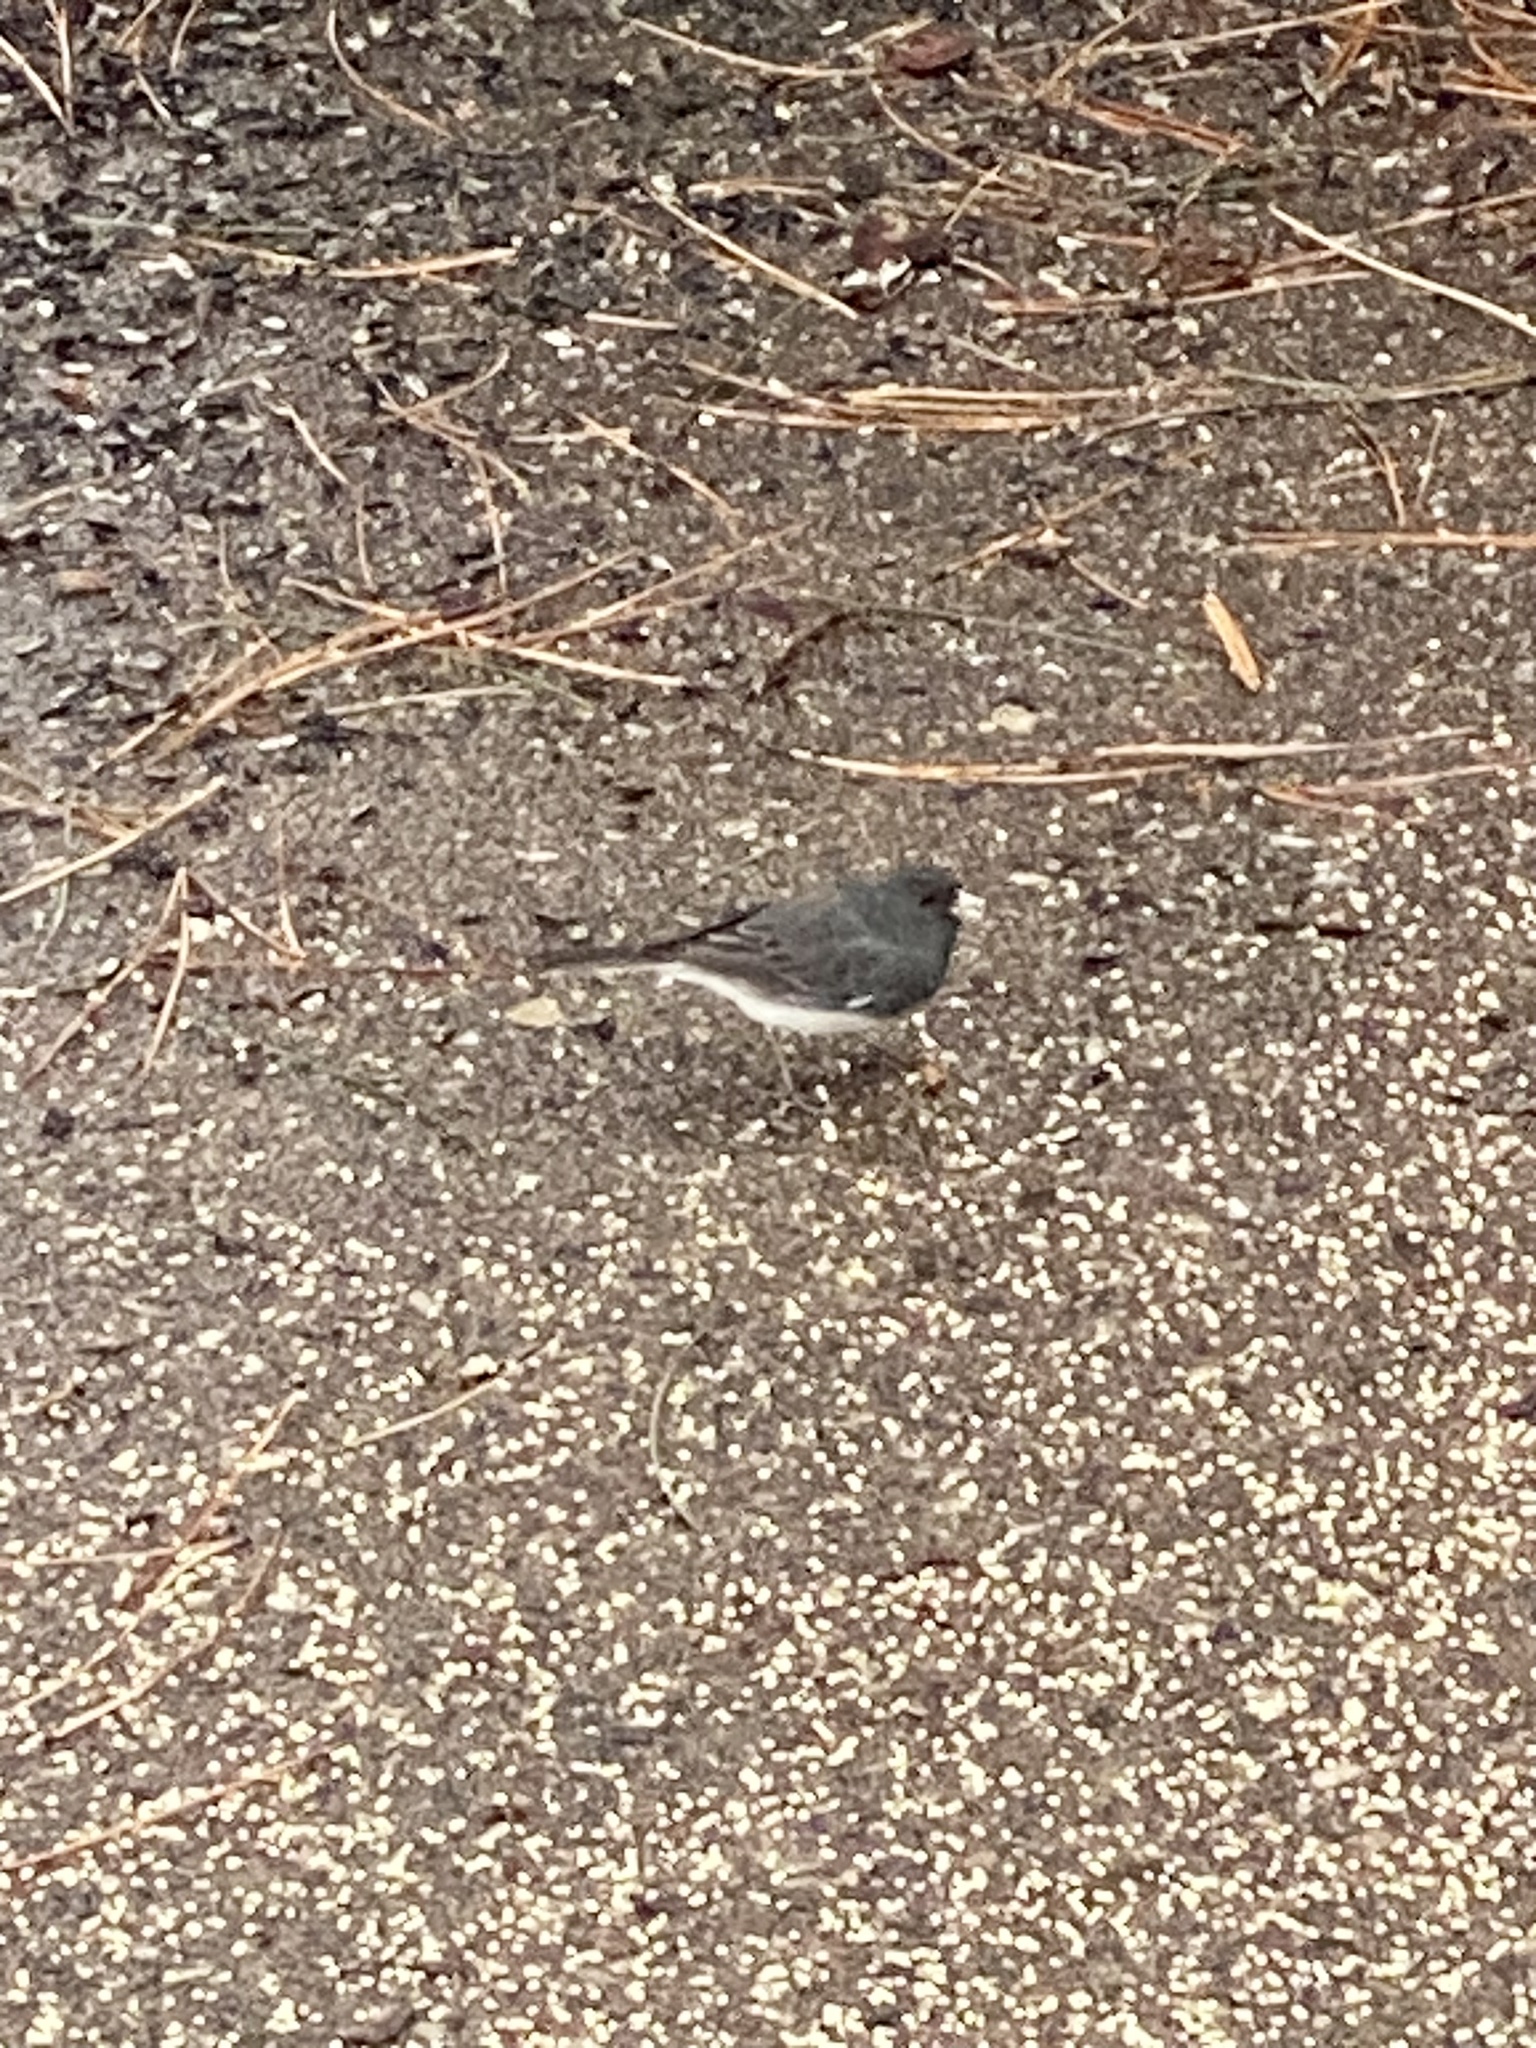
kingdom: Animalia
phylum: Chordata
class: Aves
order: Passeriformes
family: Passerellidae
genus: Junco
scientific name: Junco hyemalis
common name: Dark-eyed junco
